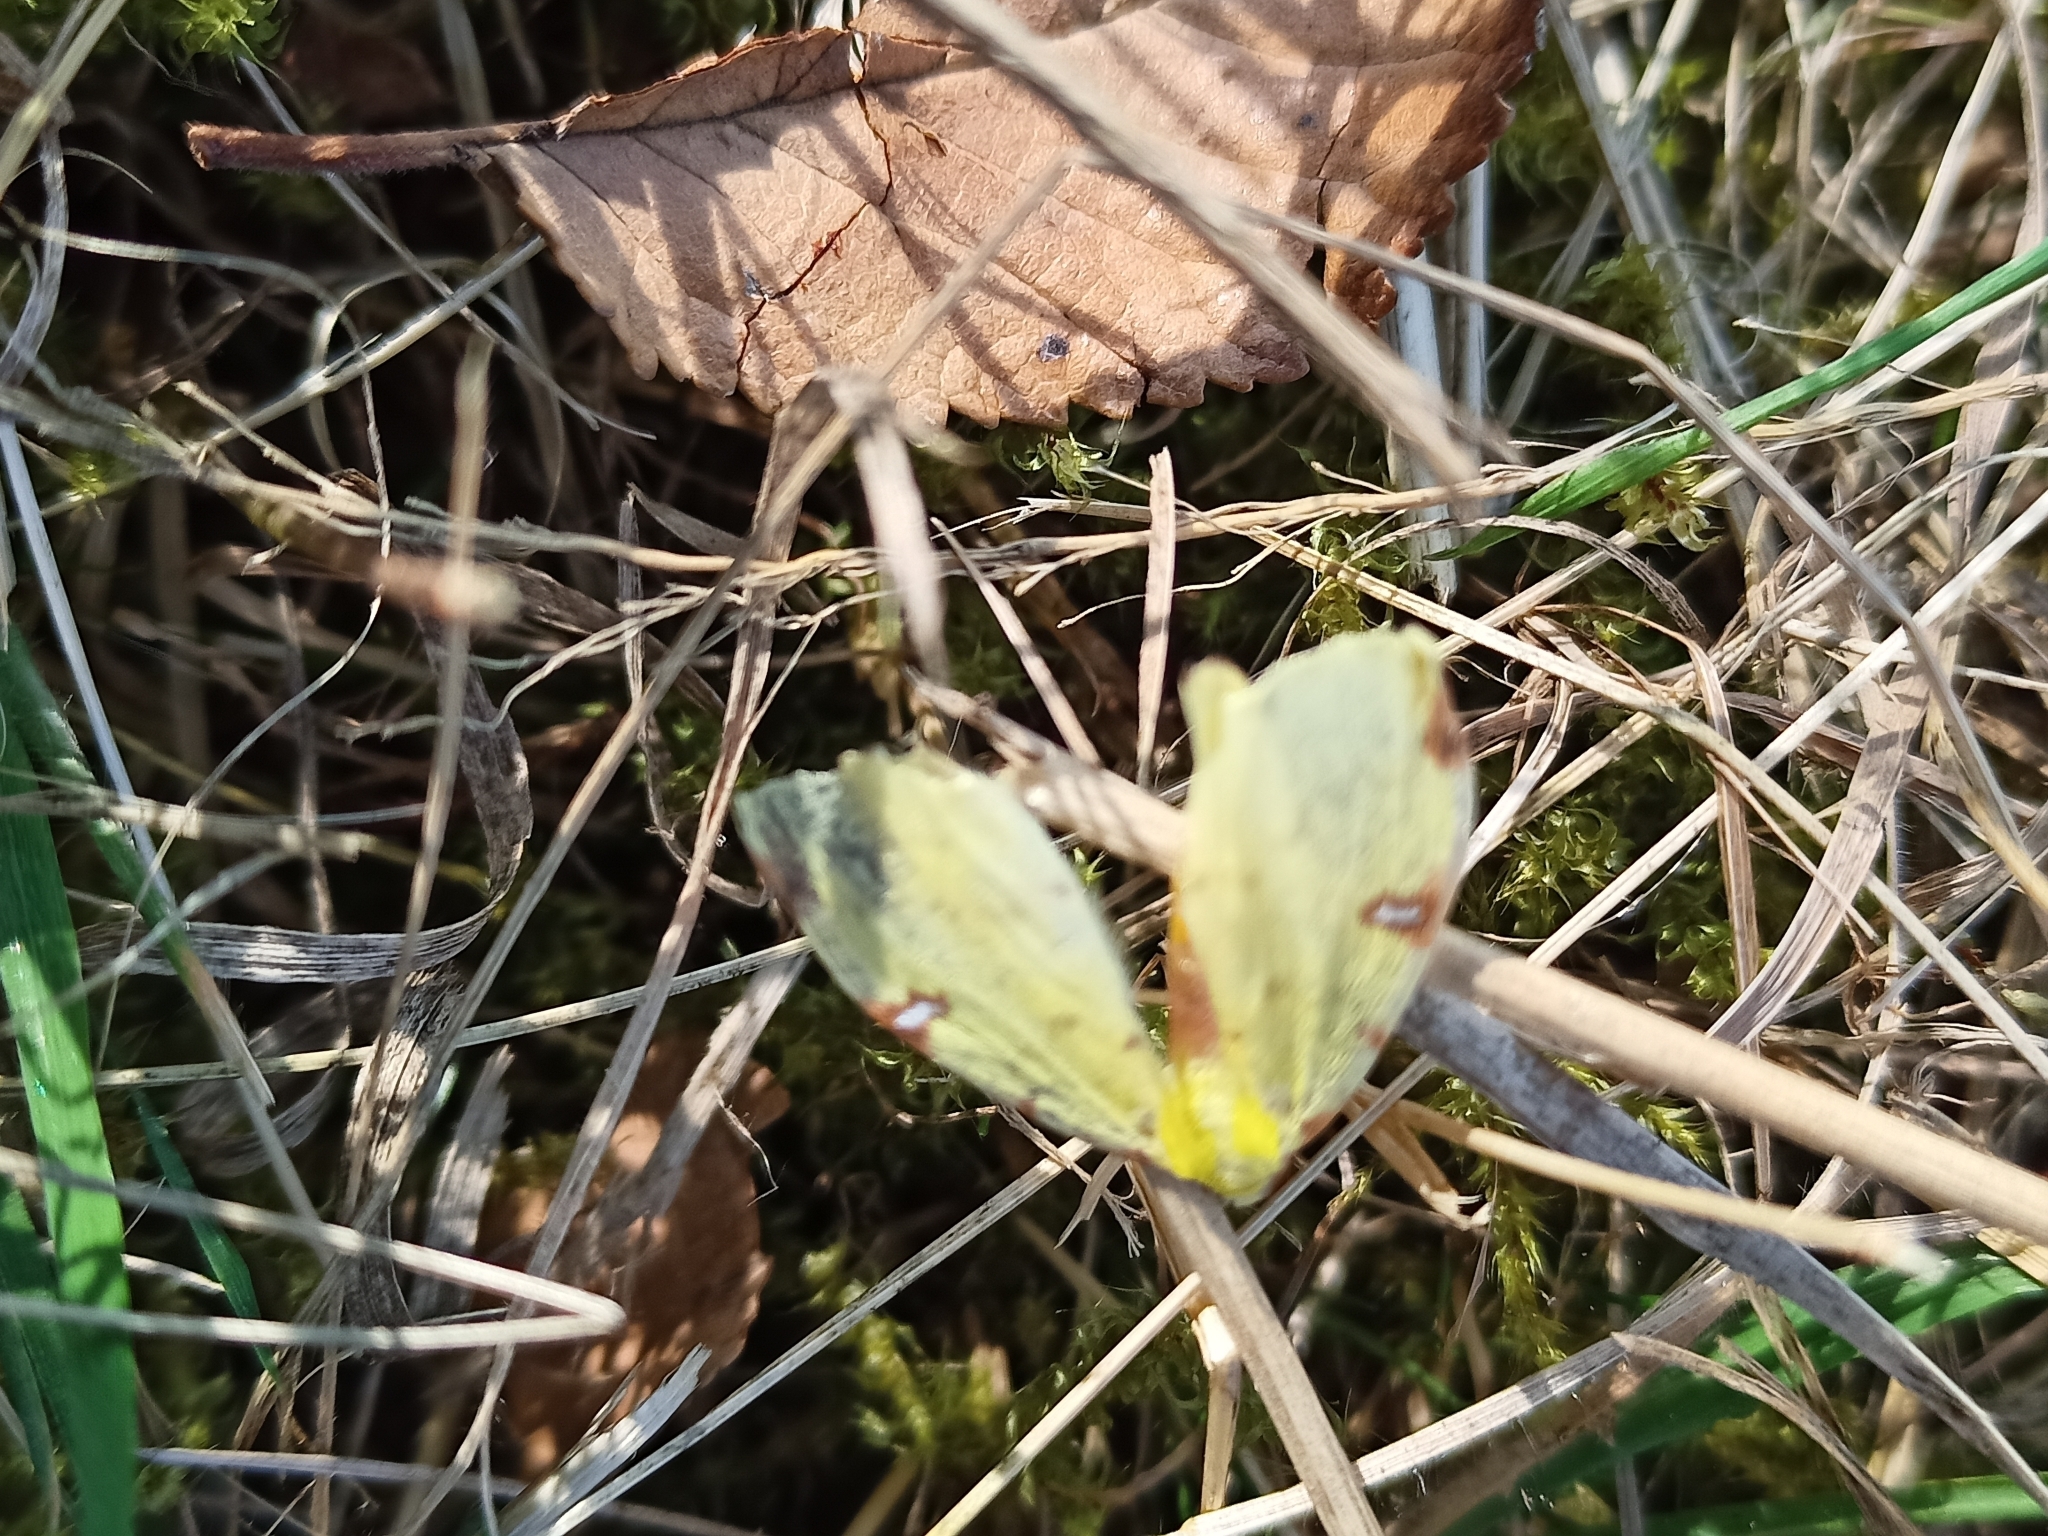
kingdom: Animalia
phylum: Arthropoda
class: Insecta
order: Lepidoptera
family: Geometridae
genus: Opisthograptis
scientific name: Opisthograptis luteolata
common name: Brimstone moth
